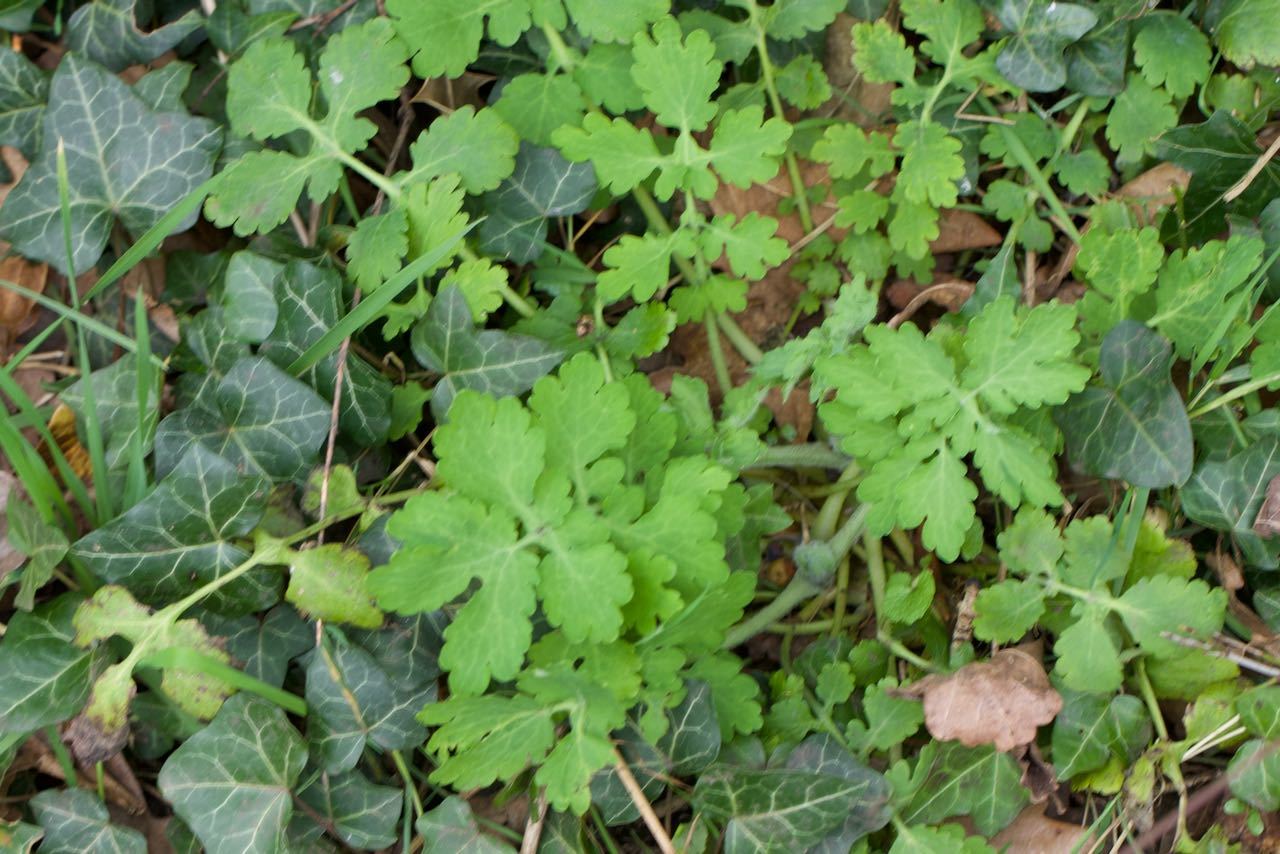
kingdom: Plantae
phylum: Tracheophyta
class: Magnoliopsida
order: Ranunculales
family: Papaveraceae
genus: Chelidonium
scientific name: Chelidonium majus
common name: Greater celandine
